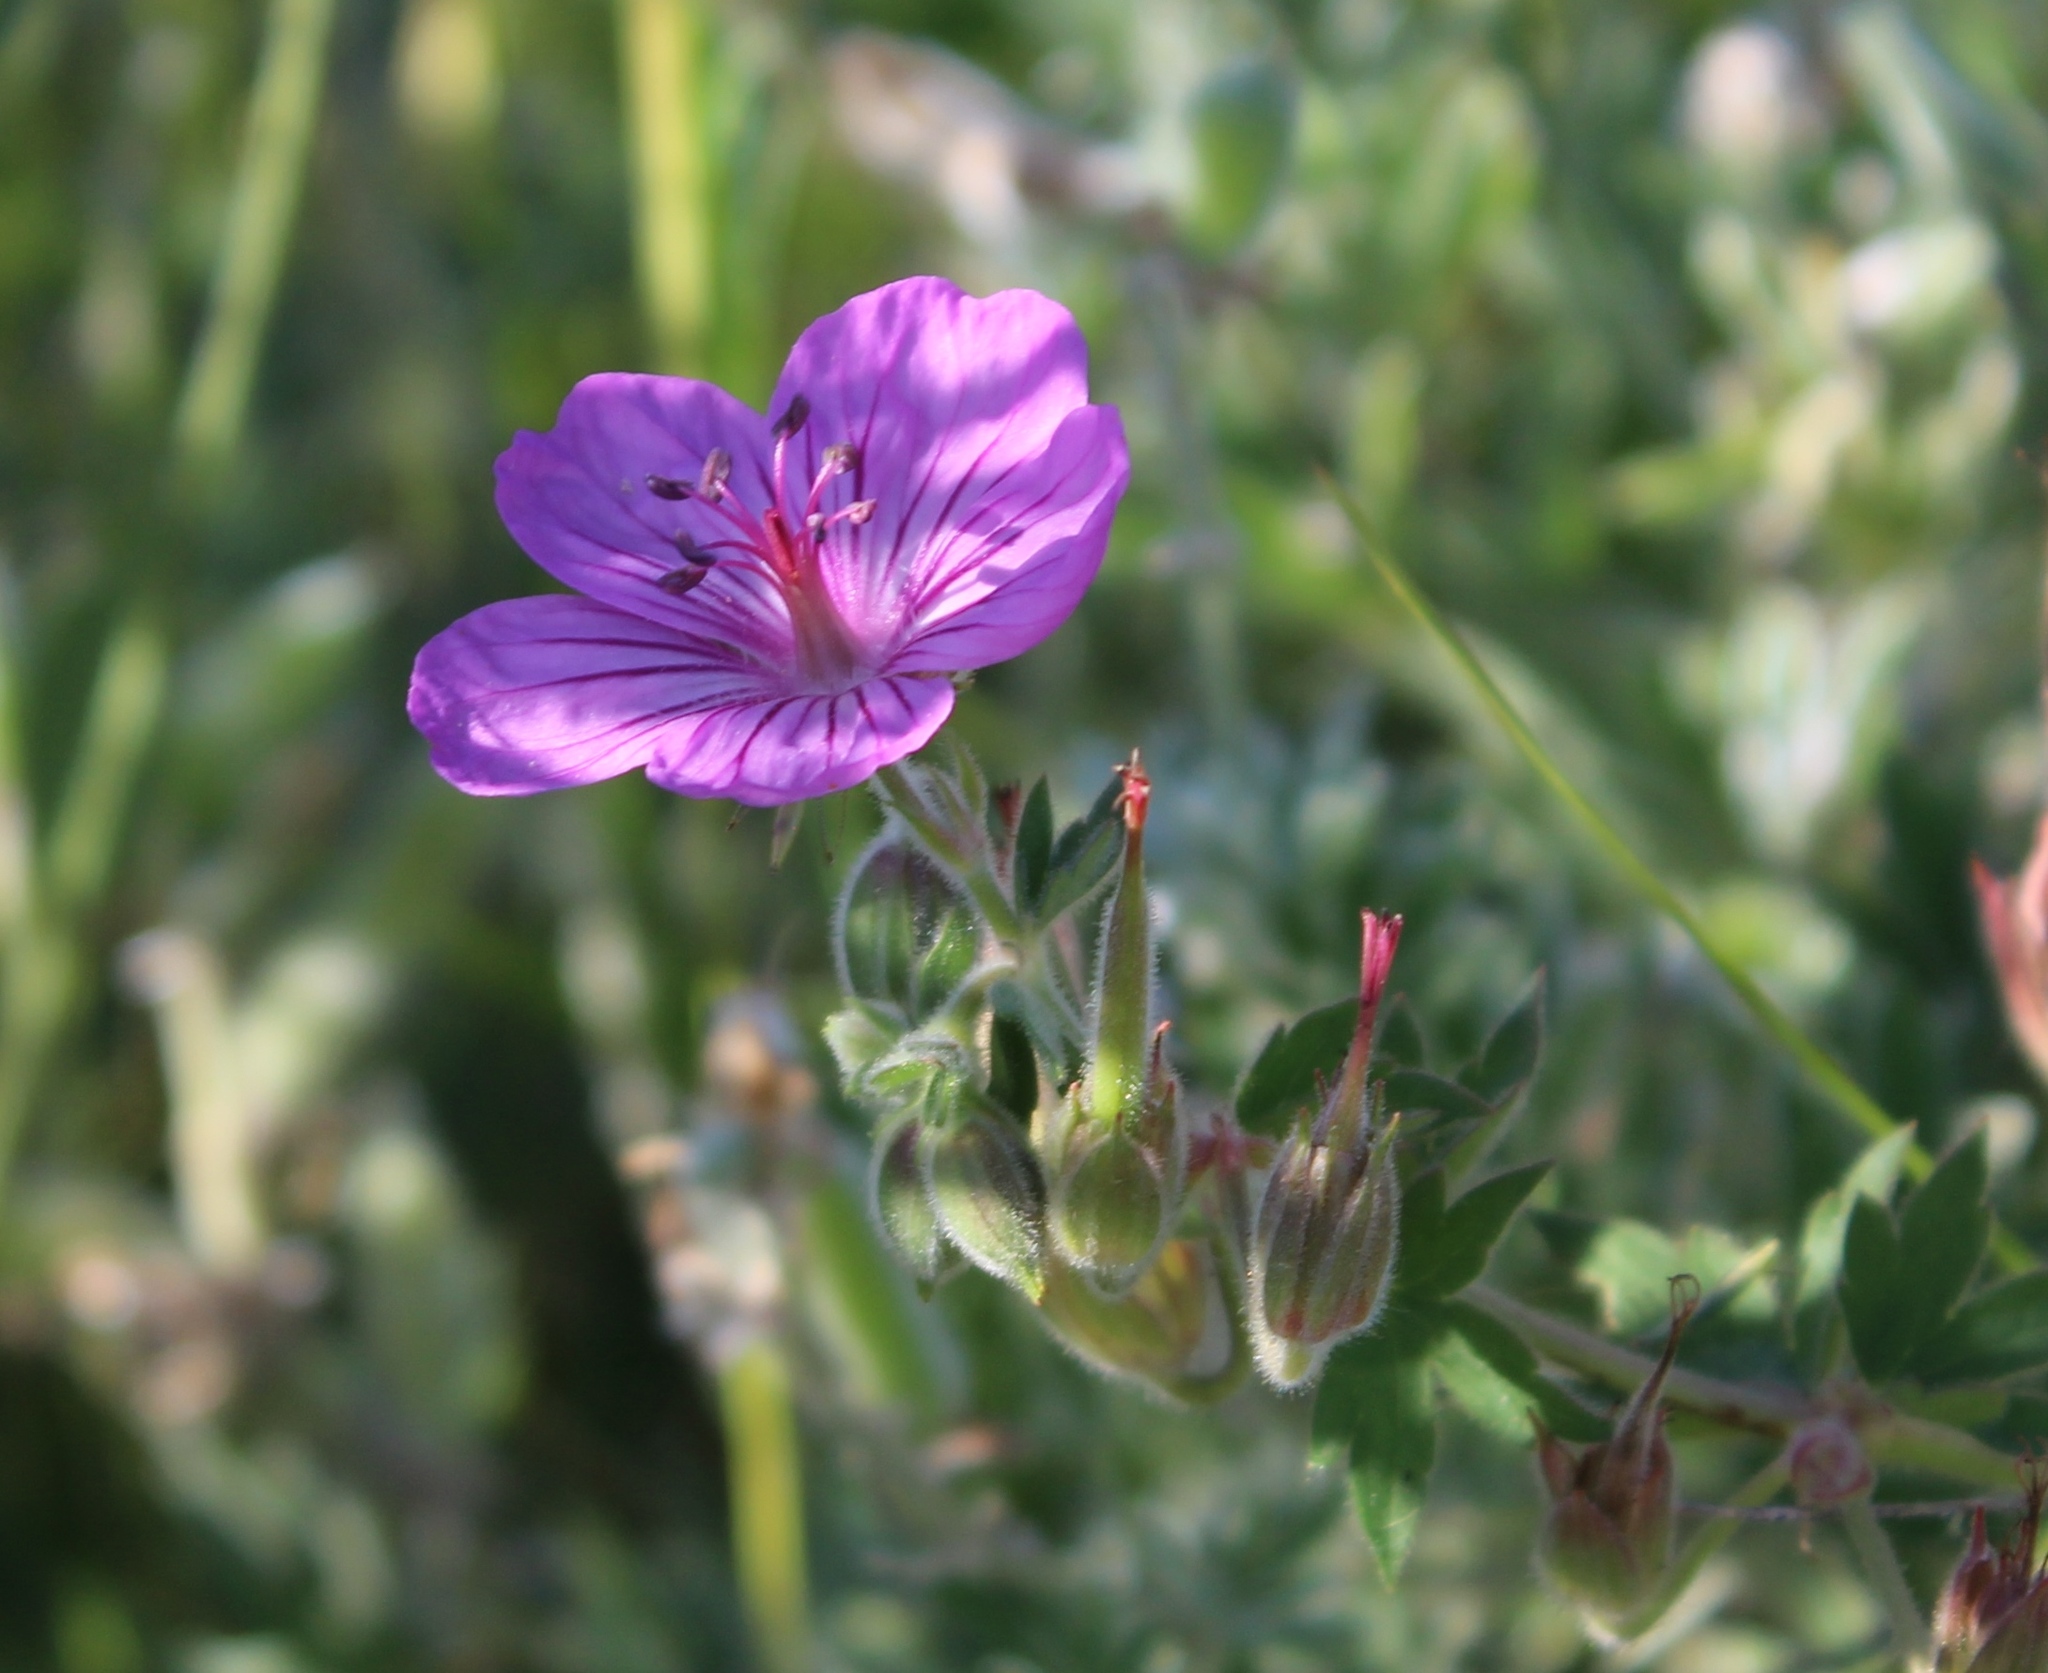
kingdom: Plantae
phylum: Tracheophyta
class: Magnoliopsida
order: Geraniales
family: Geraniaceae
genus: Geranium
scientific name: Geranium viscosissimum
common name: Purple geranium
